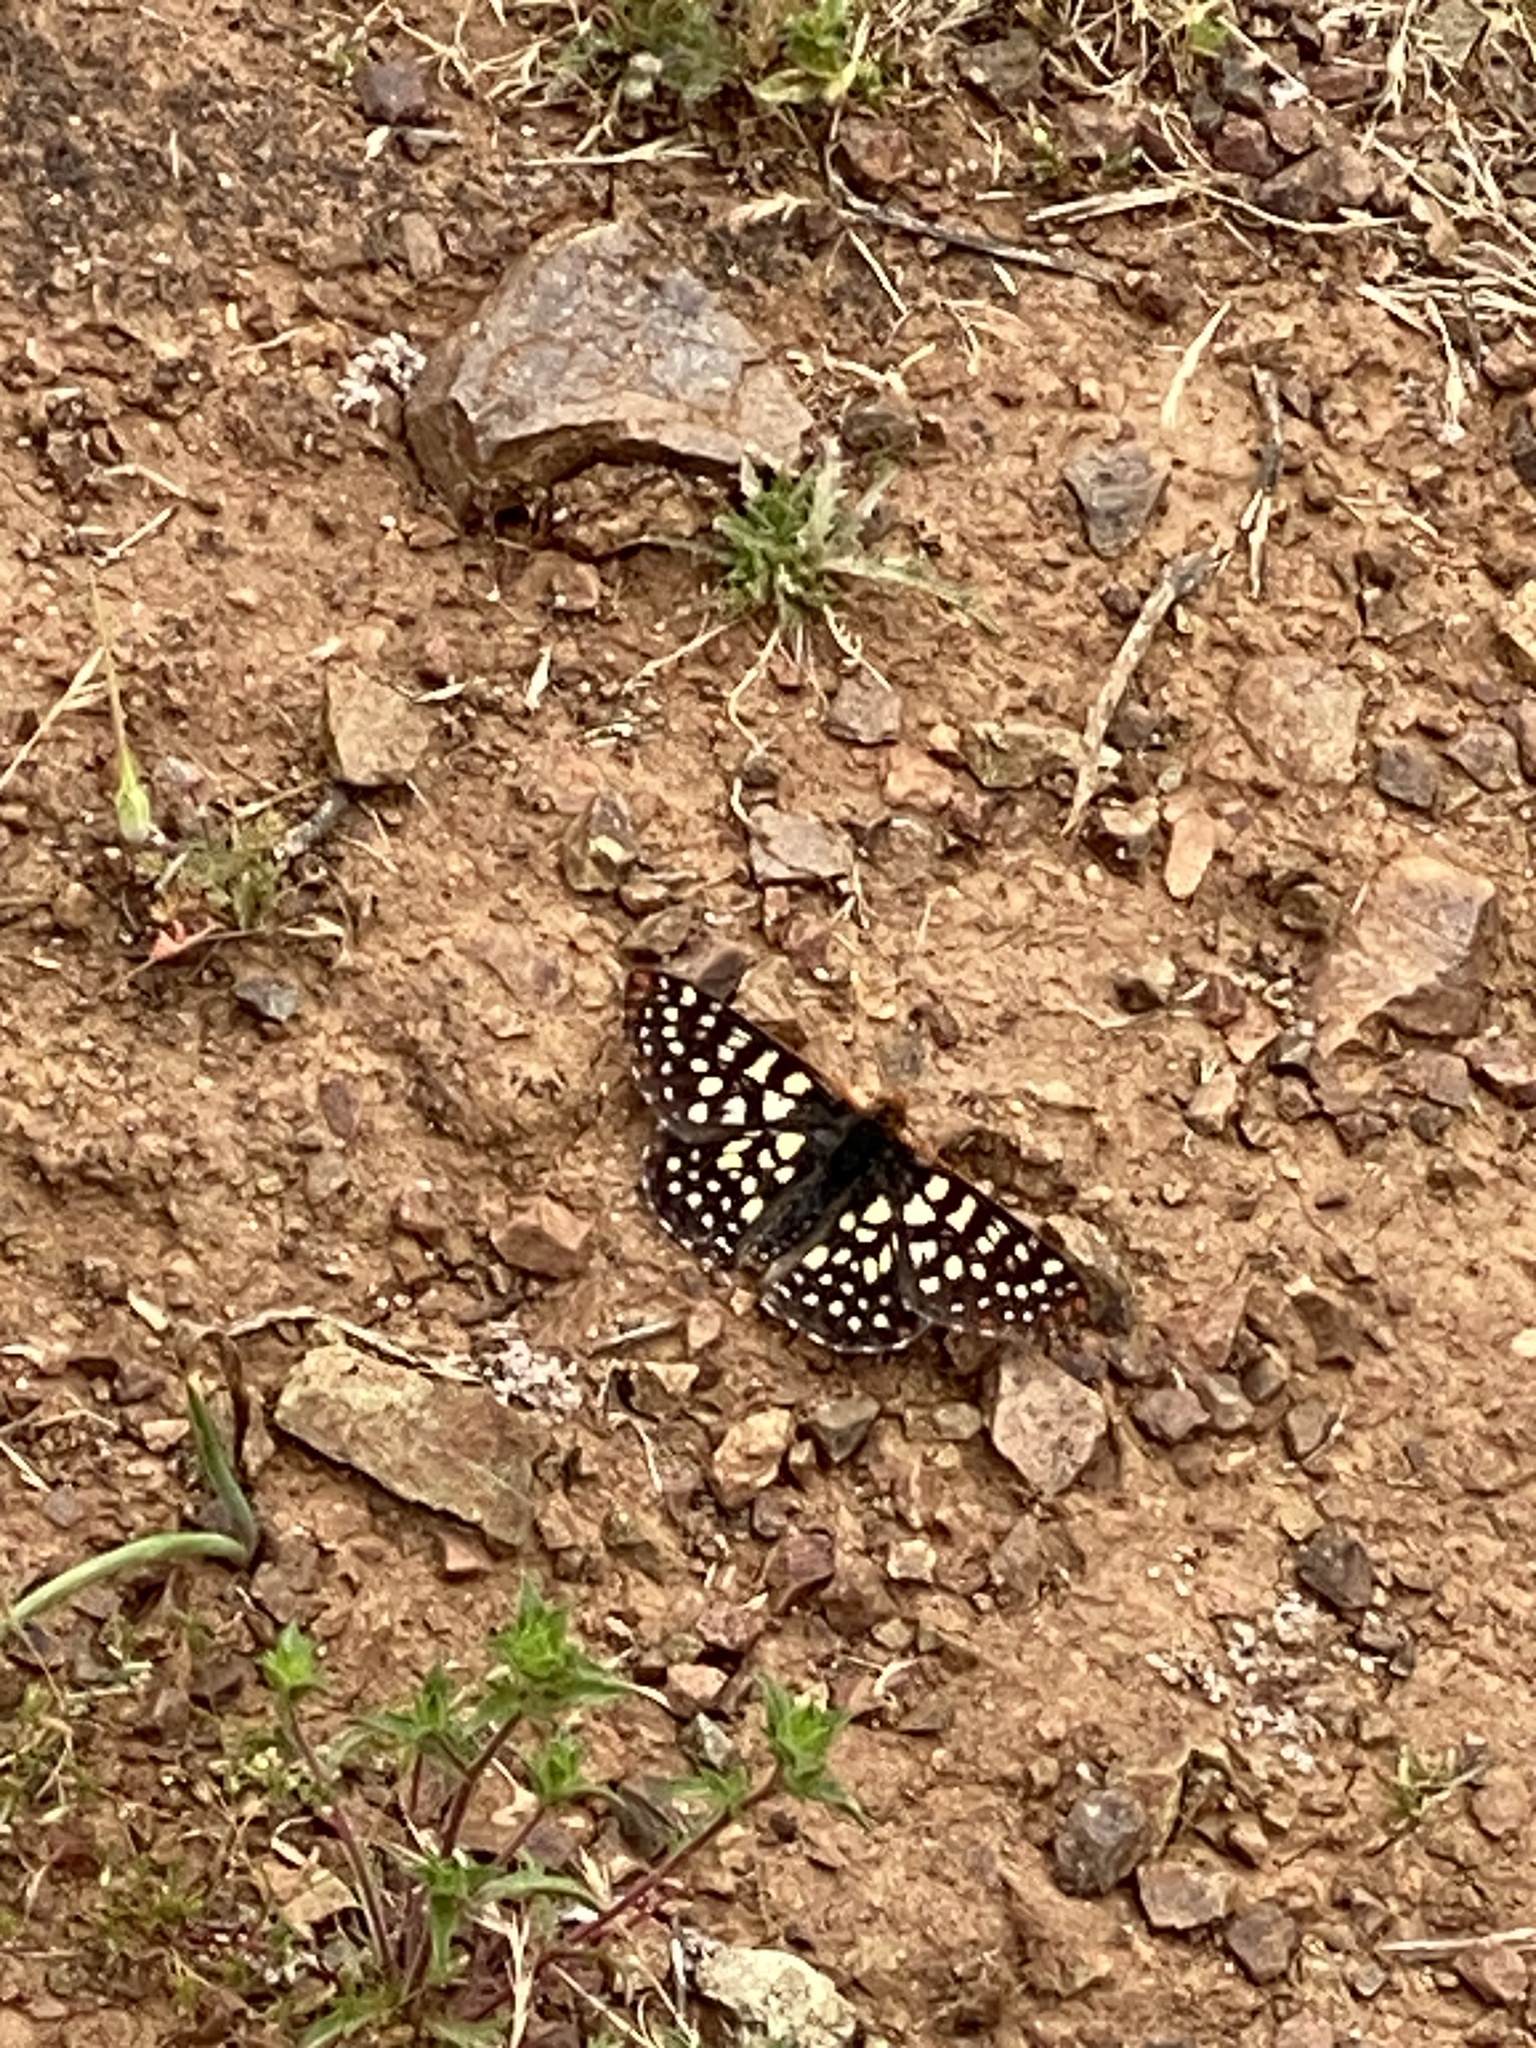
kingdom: Animalia
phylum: Arthropoda
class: Insecta
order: Lepidoptera
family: Nymphalidae
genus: Occidryas
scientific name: Occidryas chalcedona
